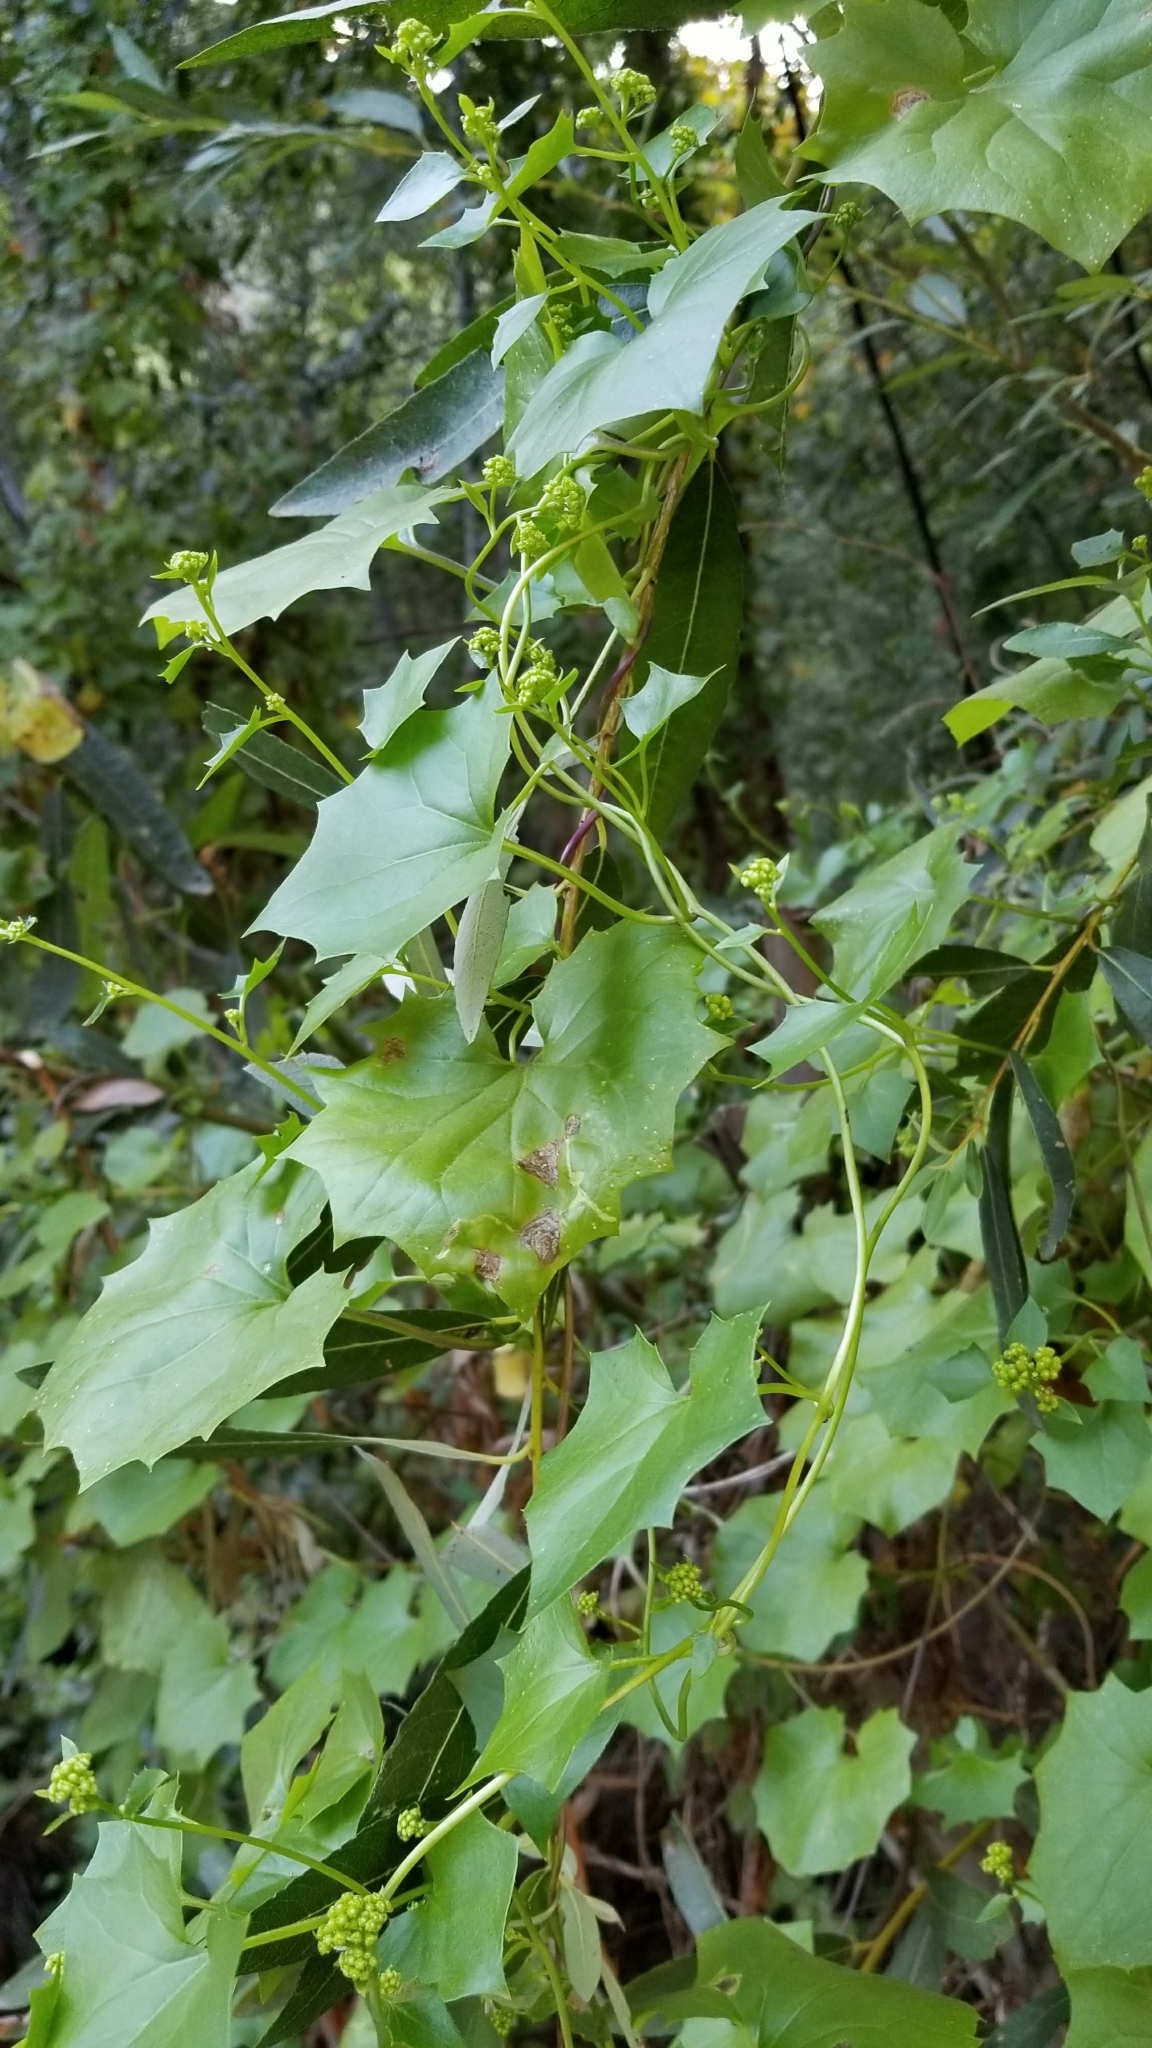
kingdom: Plantae
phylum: Tracheophyta
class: Magnoliopsida
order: Asterales
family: Asteraceae
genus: Delairea
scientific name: Delairea odorata
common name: Cape-ivy
